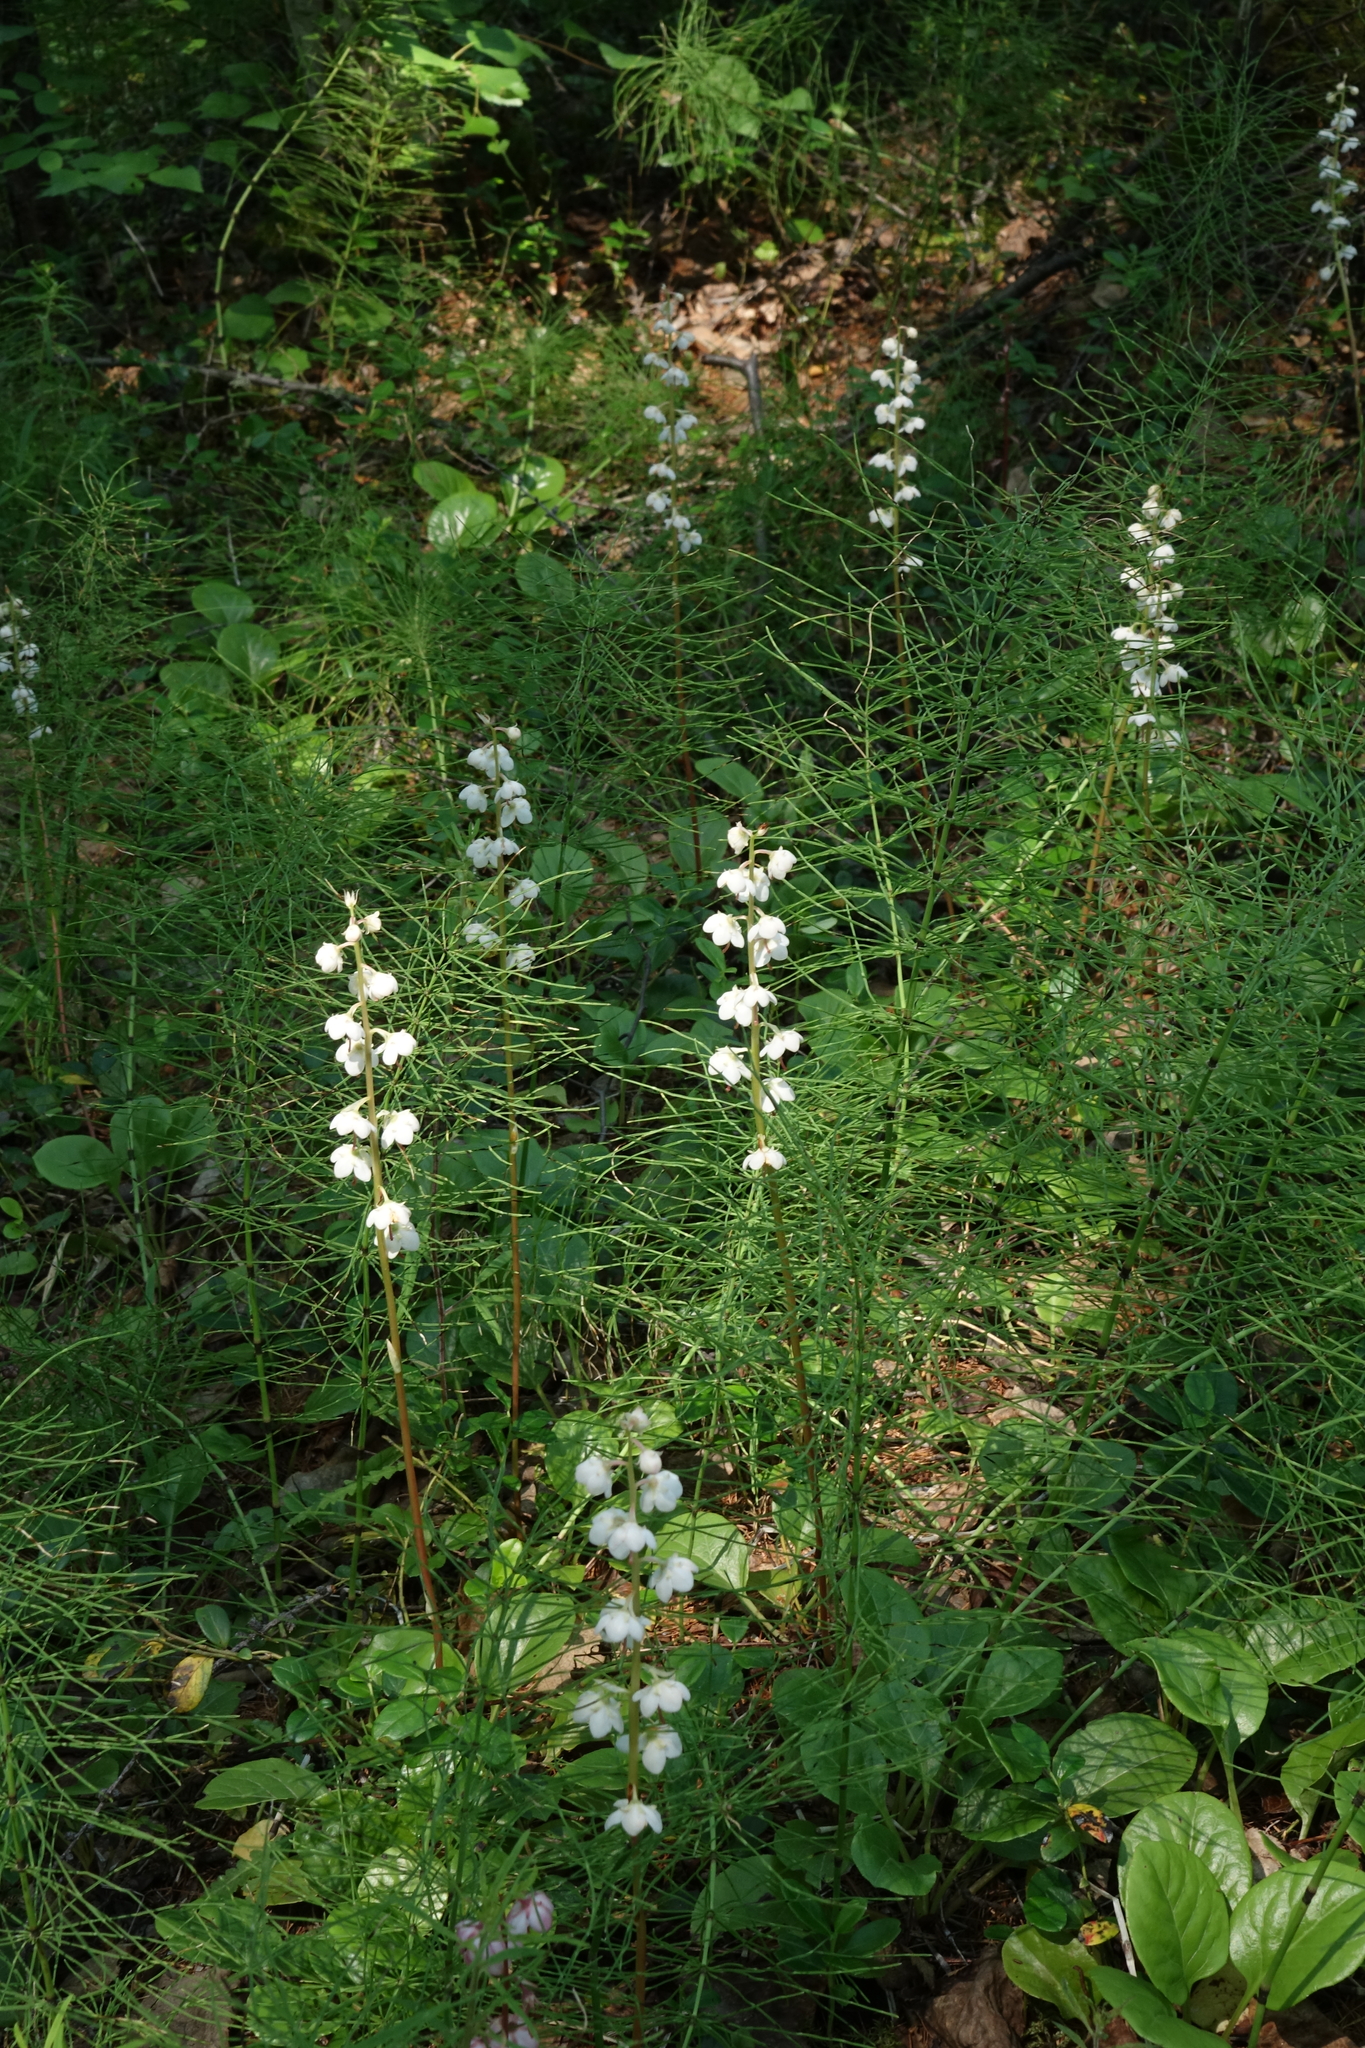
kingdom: Plantae
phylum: Tracheophyta
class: Magnoliopsida
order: Ericales
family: Ericaceae
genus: Pyrola
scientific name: Pyrola rotundifolia
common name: Round-leaved wintergreen
